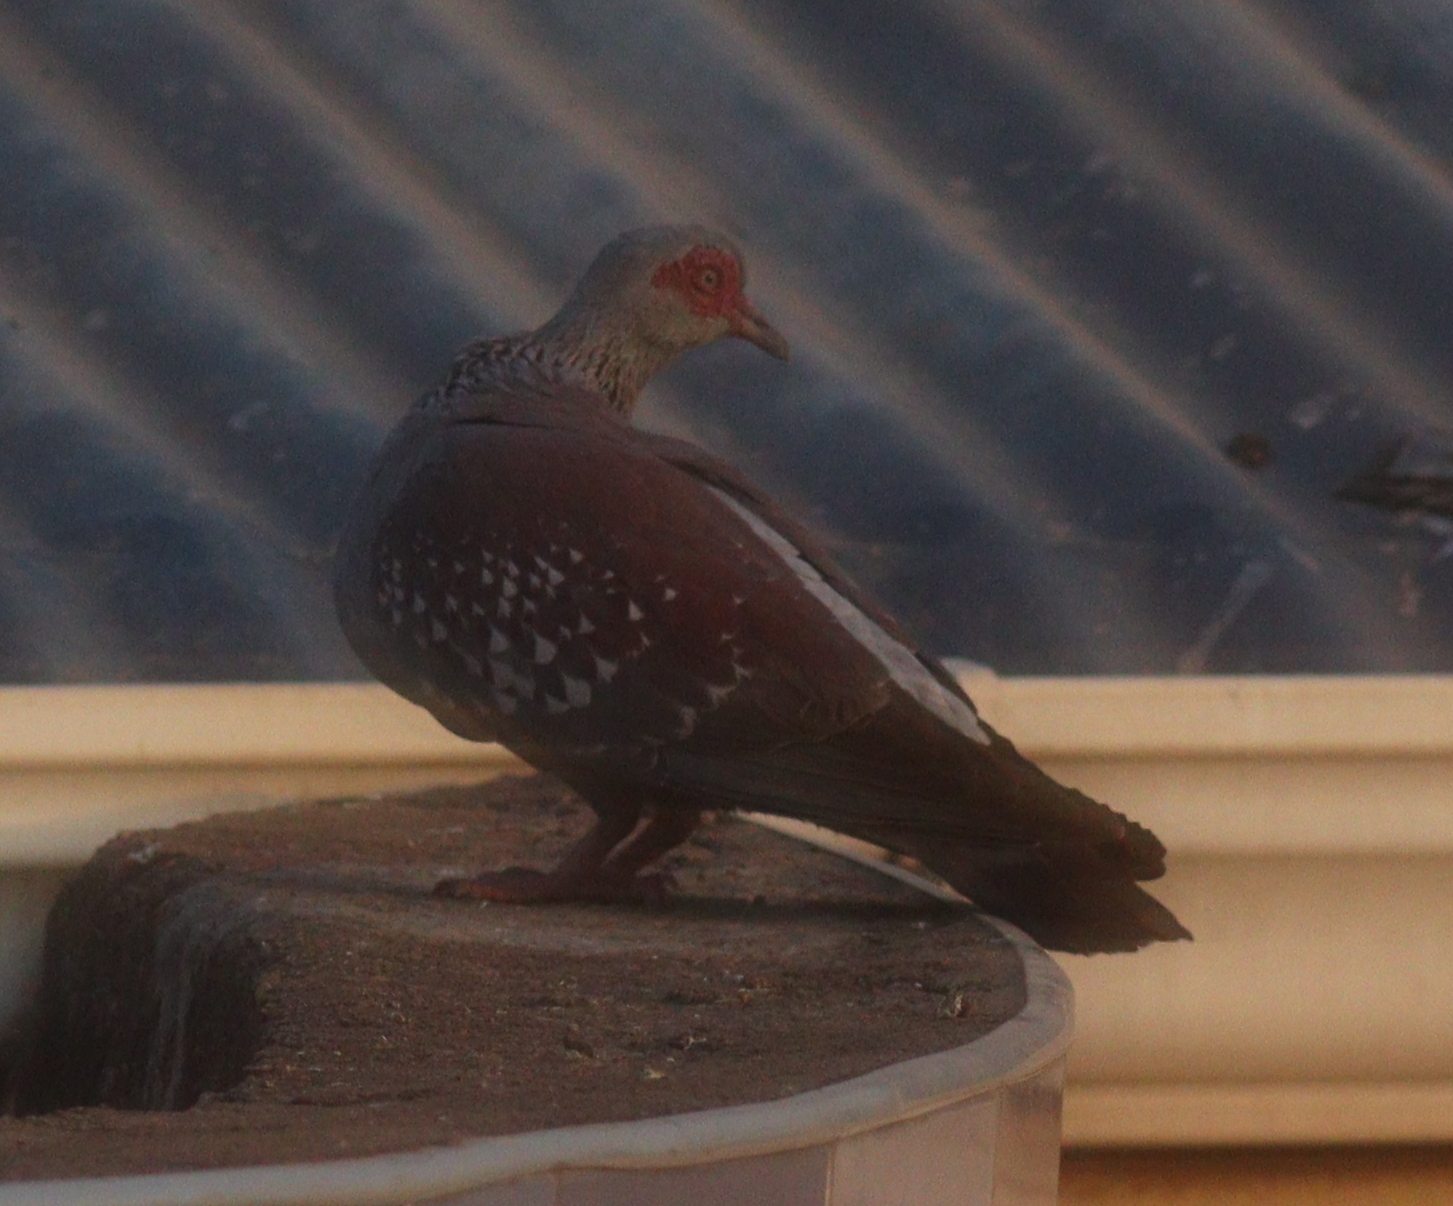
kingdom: Animalia
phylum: Chordata
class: Aves
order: Columbiformes
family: Columbidae
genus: Columba
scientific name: Columba guinea
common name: Speckled pigeon
